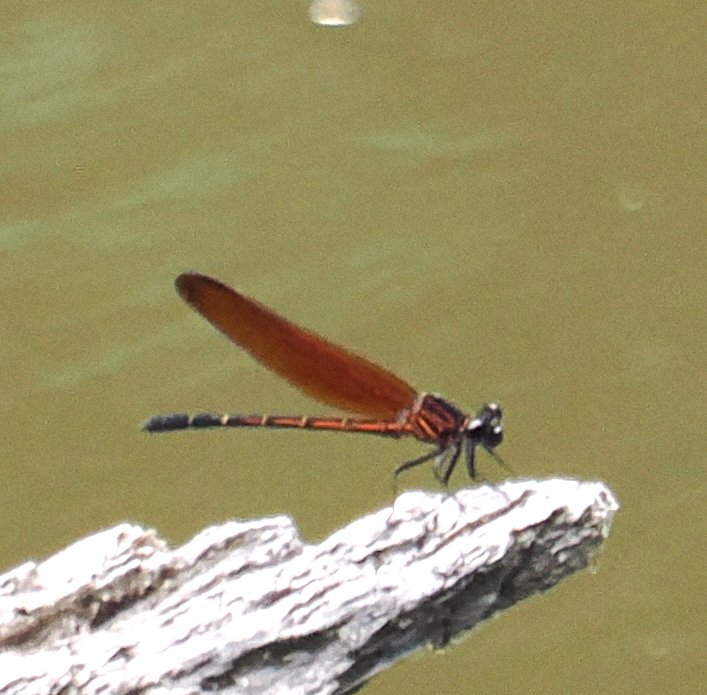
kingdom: Animalia
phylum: Arthropoda
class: Insecta
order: Odonata
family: Euphaeidae
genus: Dysphaea
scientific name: Dysphaea gloriosa
